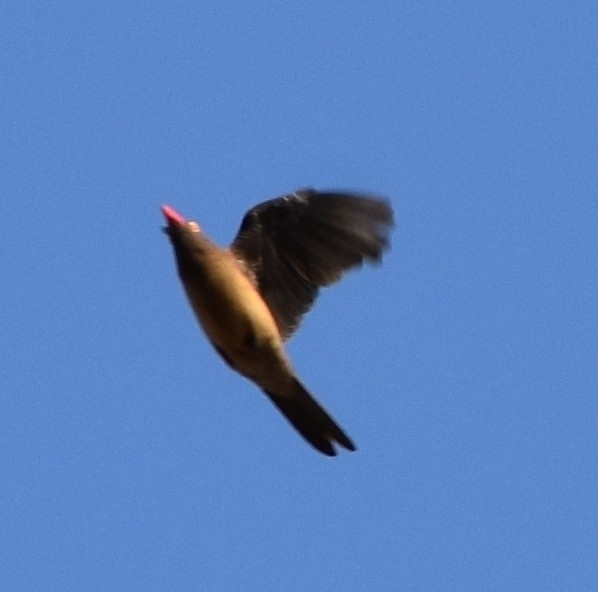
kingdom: Animalia
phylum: Chordata
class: Aves
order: Passeriformes
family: Buphagidae
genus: Buphagus
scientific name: Buphagus erythrorhynchus
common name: Red-billed oxpecker
